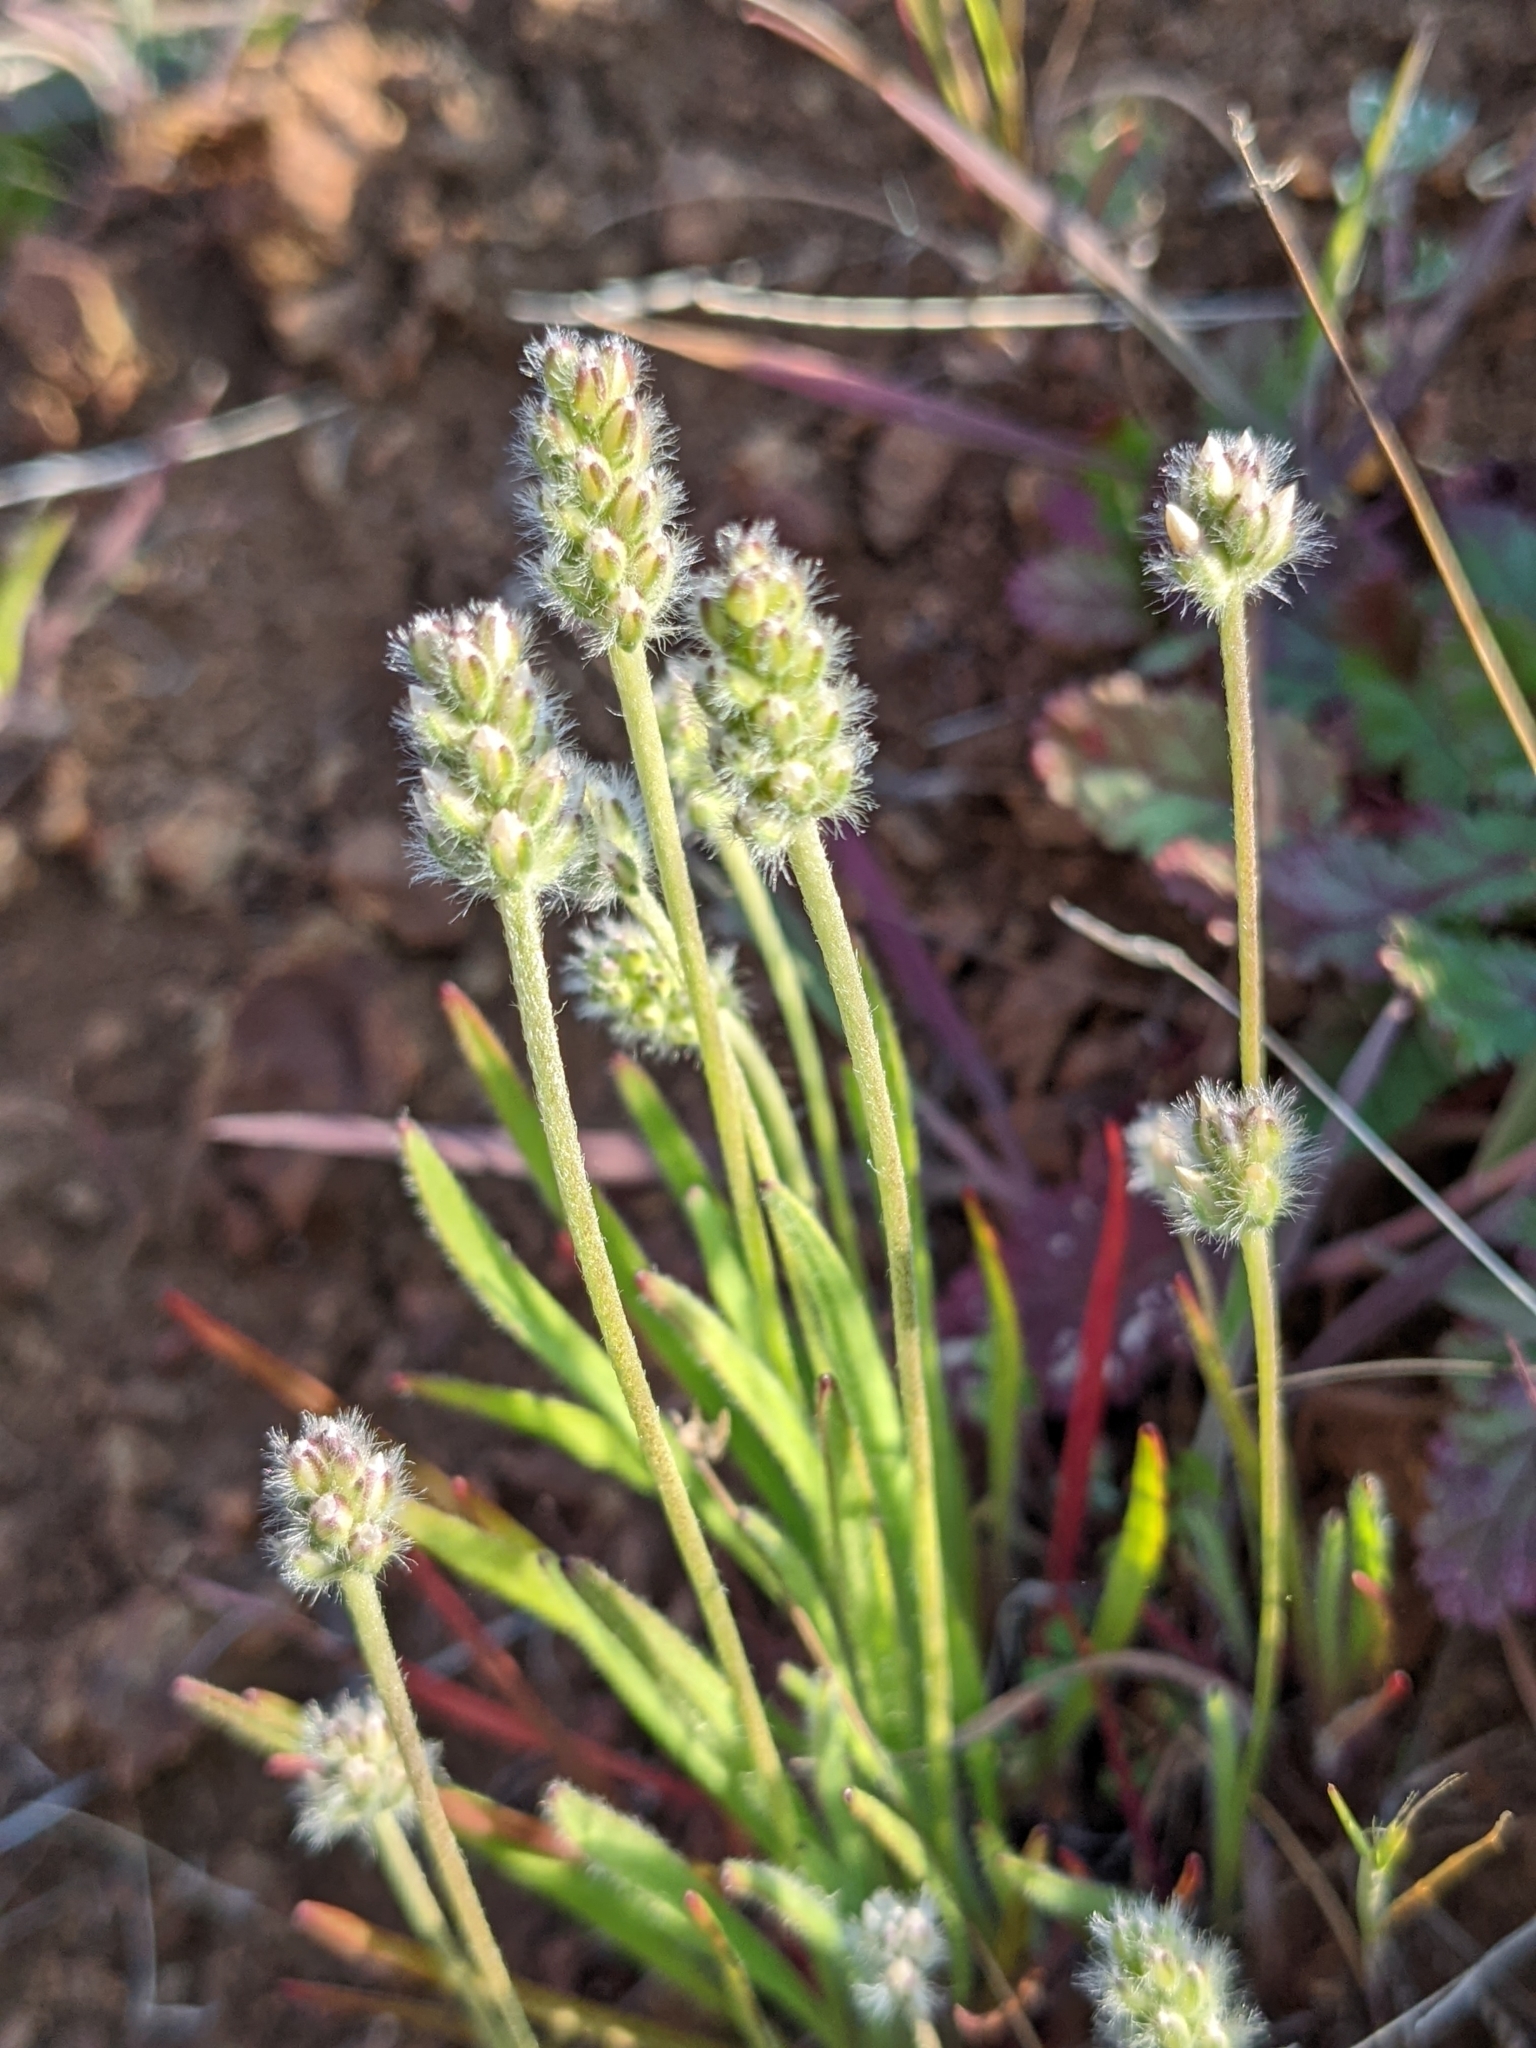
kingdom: Plantae
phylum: Tracheophyta
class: Magnoliopsida
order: Lamiales
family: Plantaginaceae
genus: Plantago
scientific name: Plantago erecta
